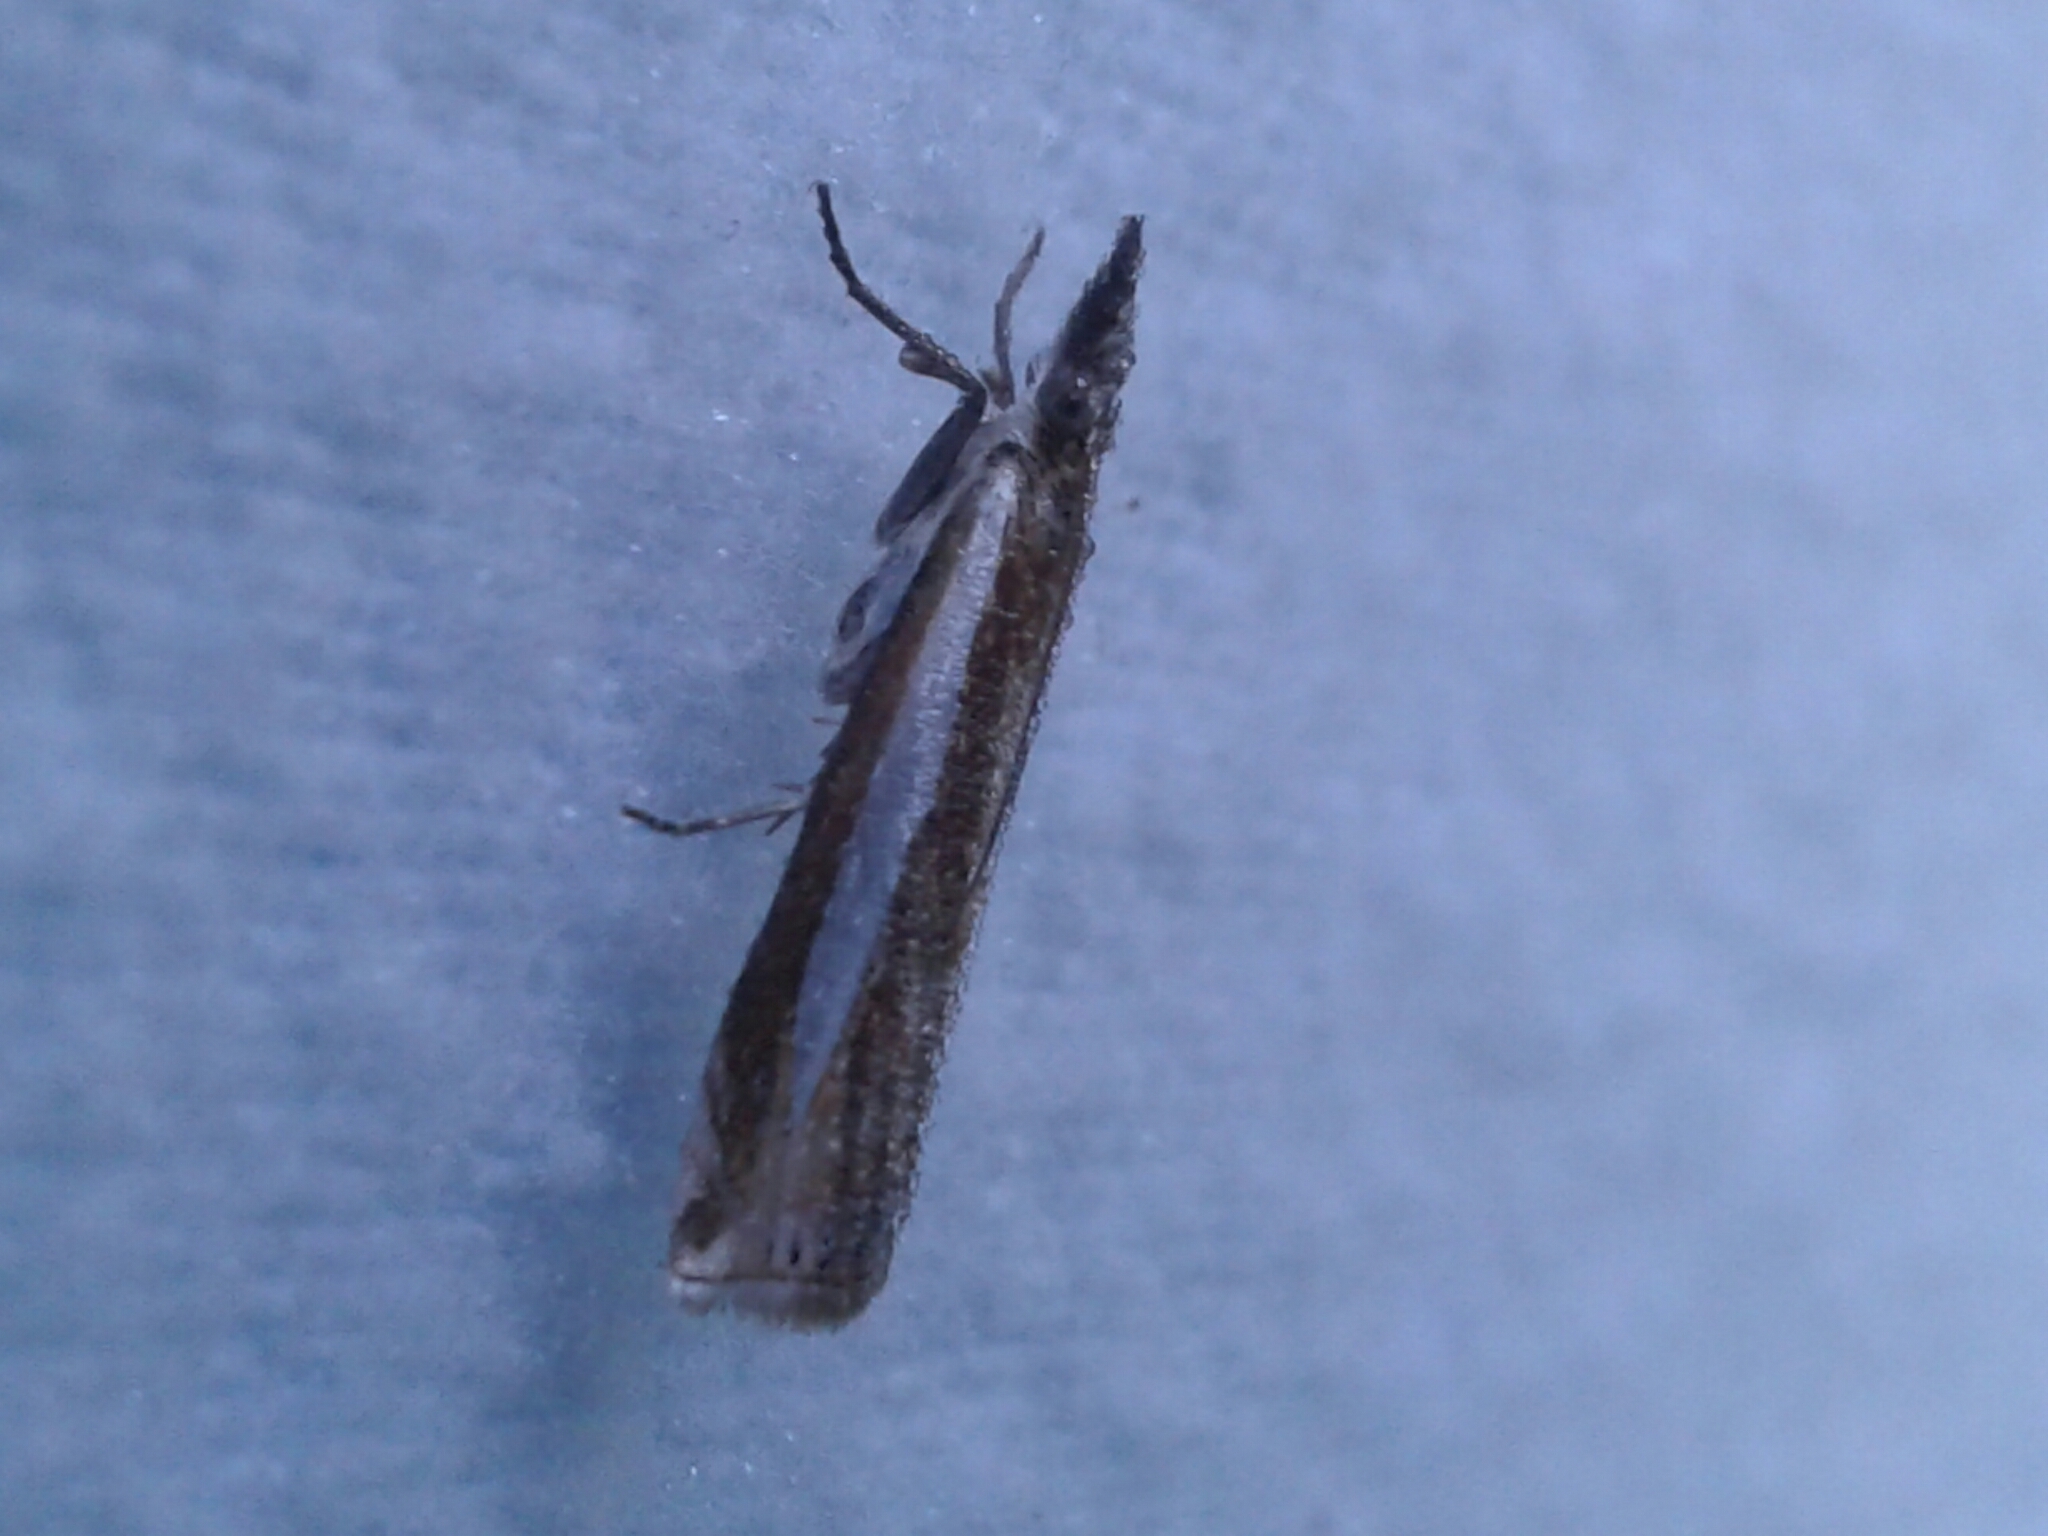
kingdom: Animalia
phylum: Arthropoda
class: Insecta
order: Lepidoptera
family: Crambidae
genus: Crambus
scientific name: Crambus praefectellus
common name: Common grass-veneer
